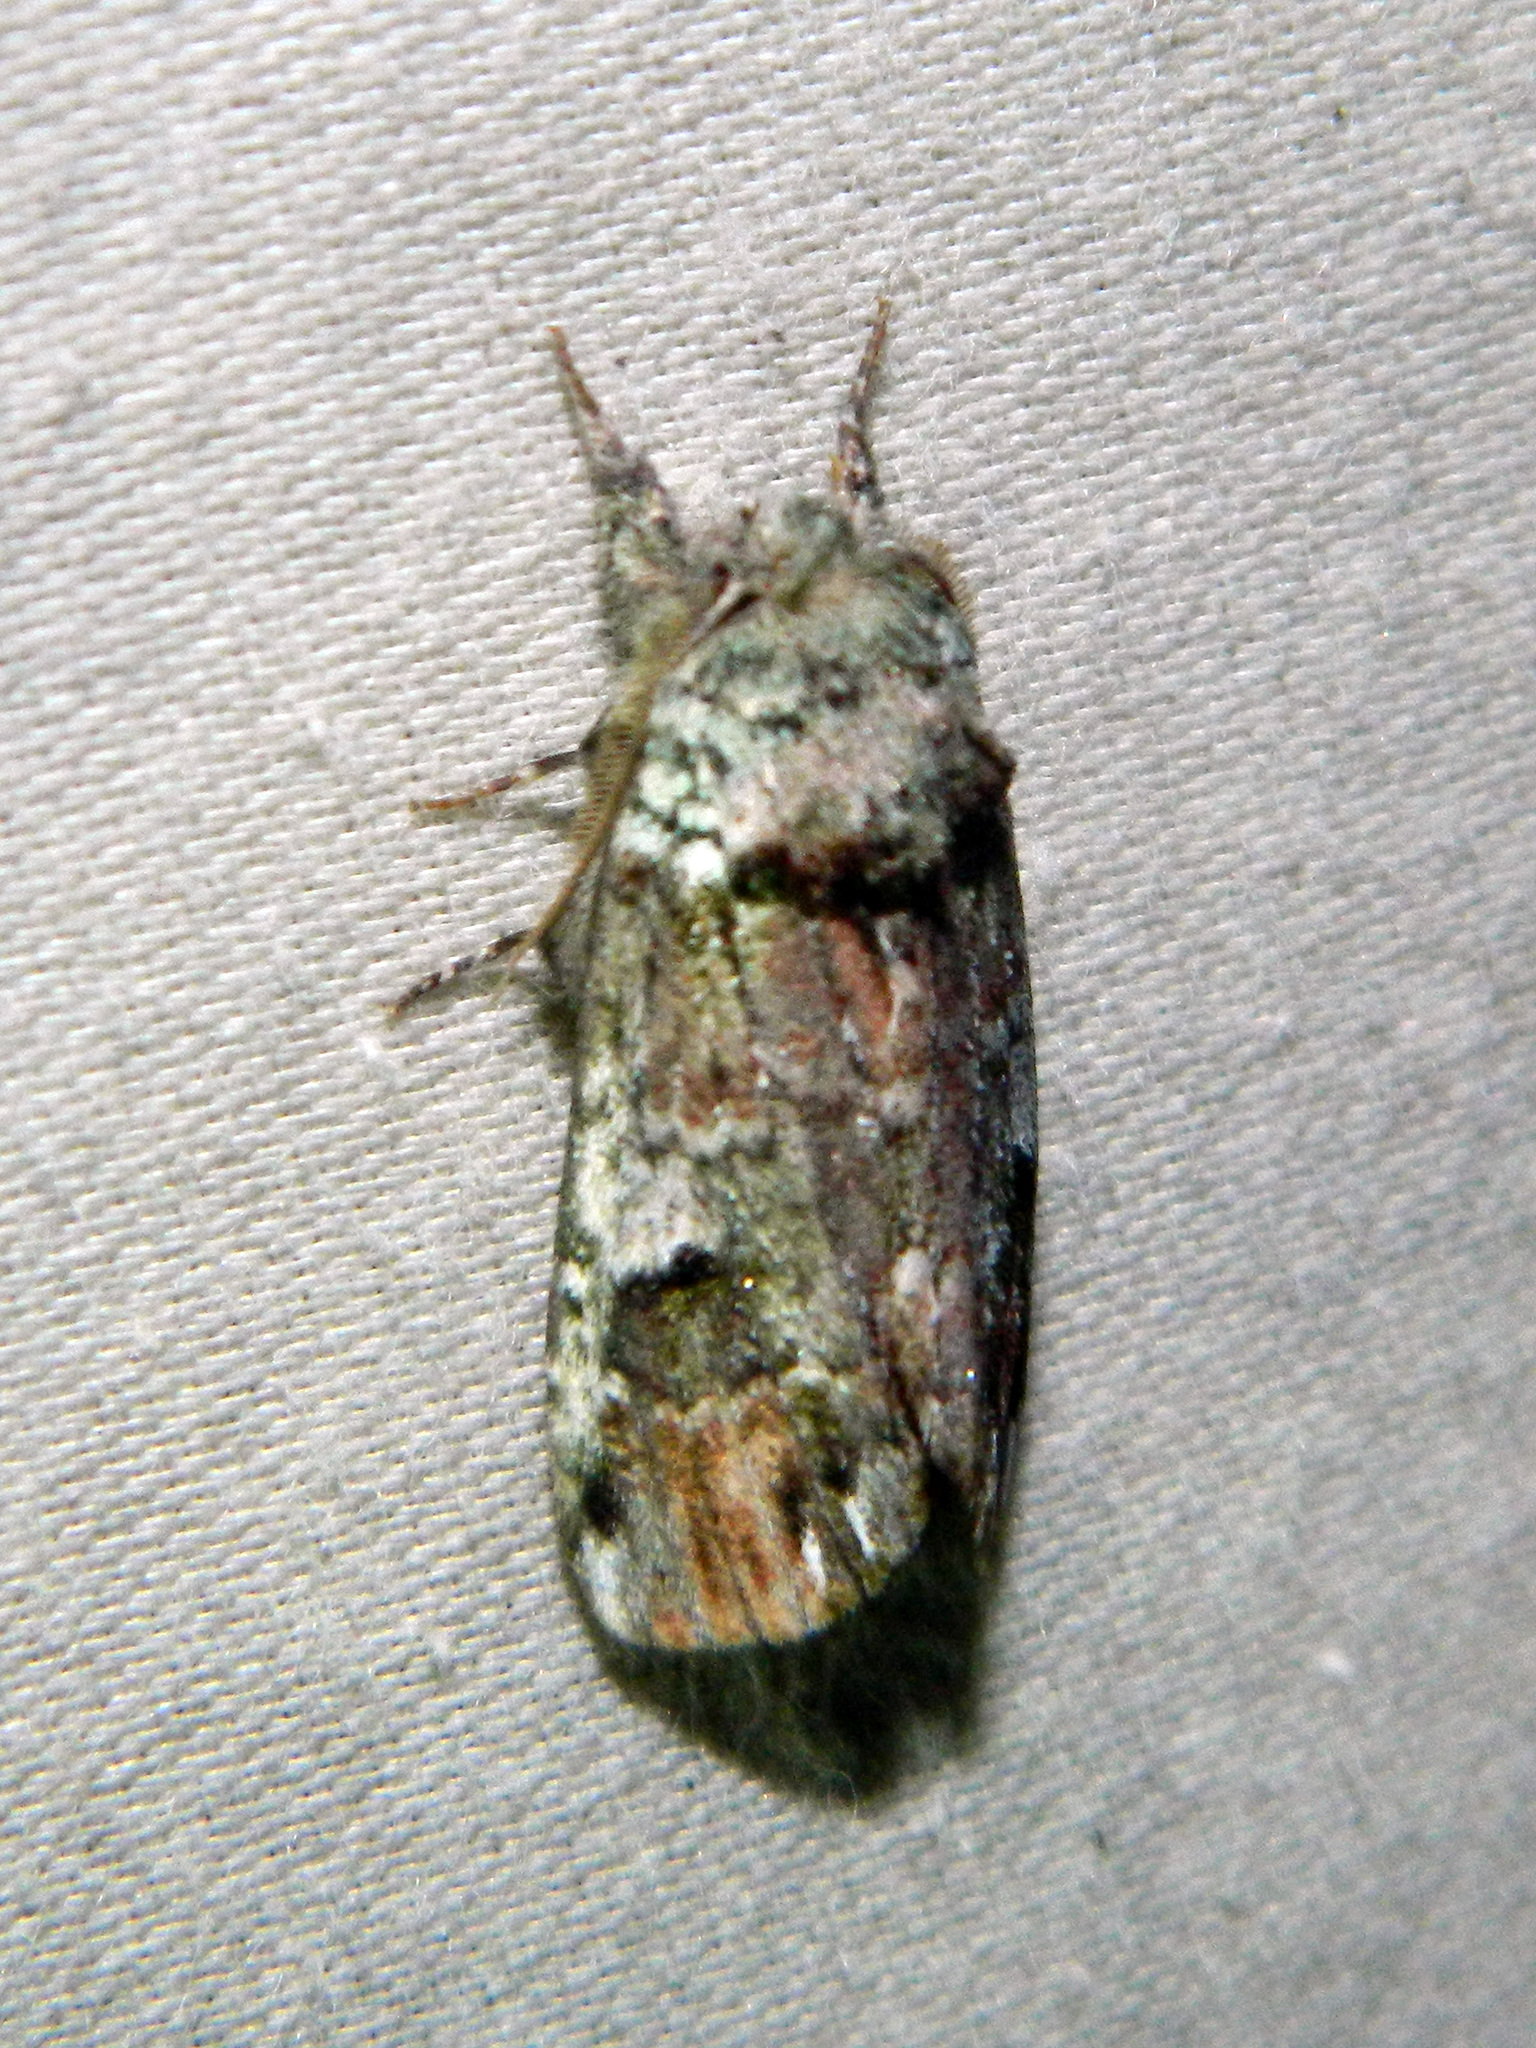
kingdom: Animalia
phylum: Arthropoda
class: Insecta
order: Lepidoptera
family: Notodontidae
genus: Schizura
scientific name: Schizura
